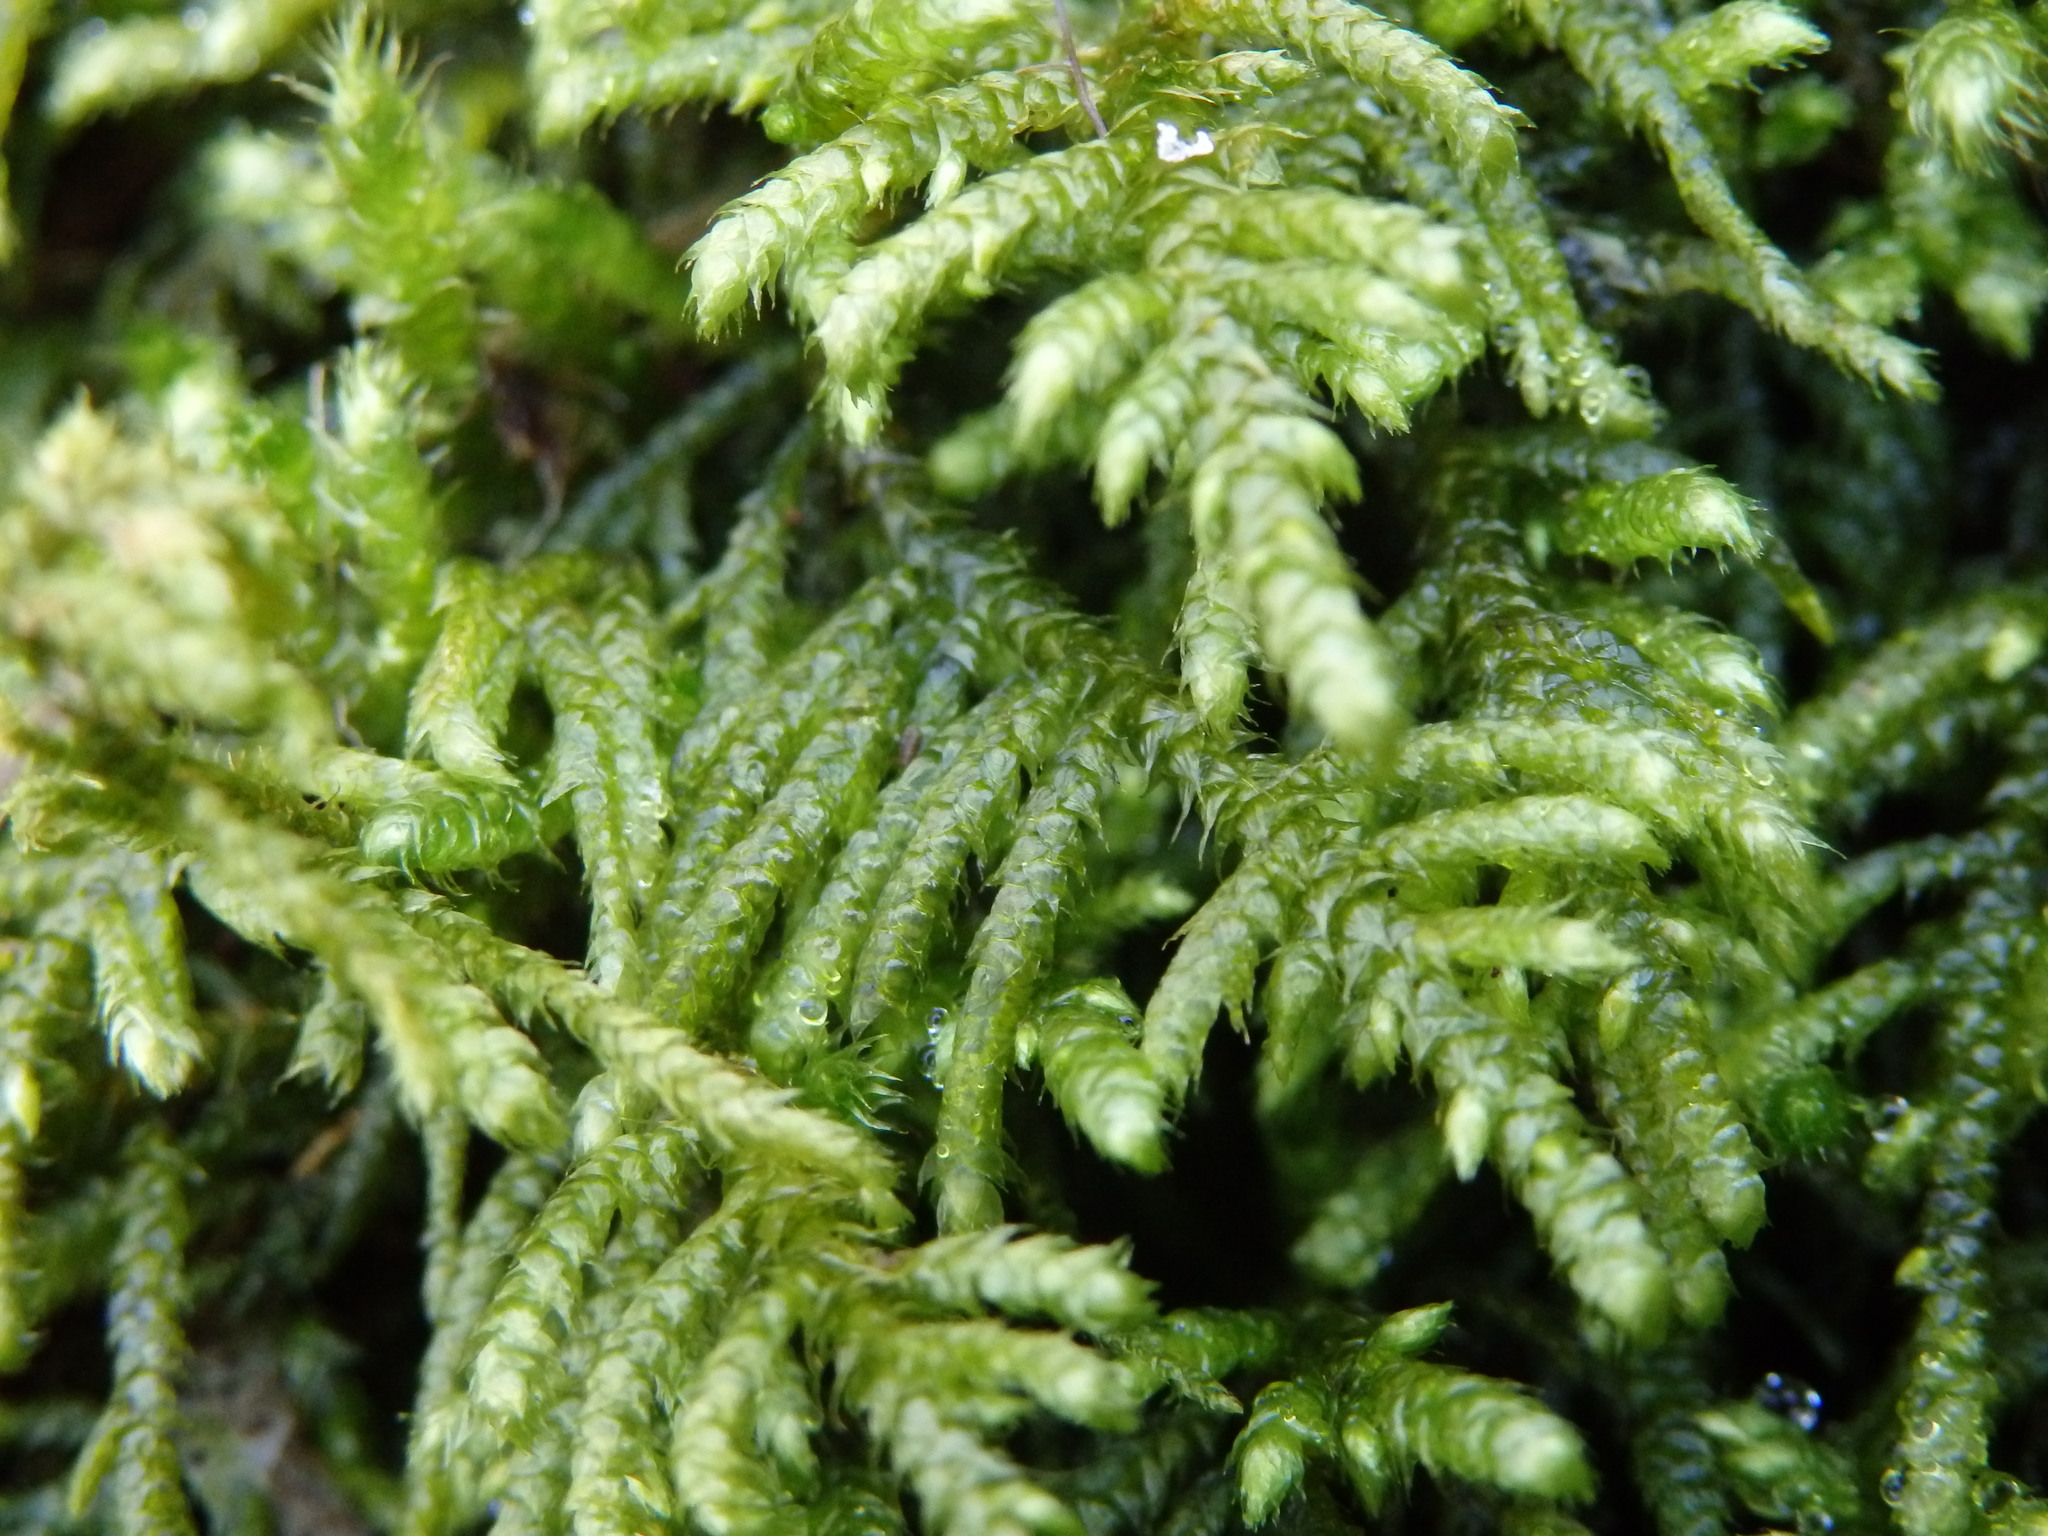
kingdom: Plantae
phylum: Bryophyta
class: Bryopsida
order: Hypnales
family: Myuriaceae
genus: Hyocomium
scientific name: Hyocomium armoricum
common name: Flagellate feather-moss
